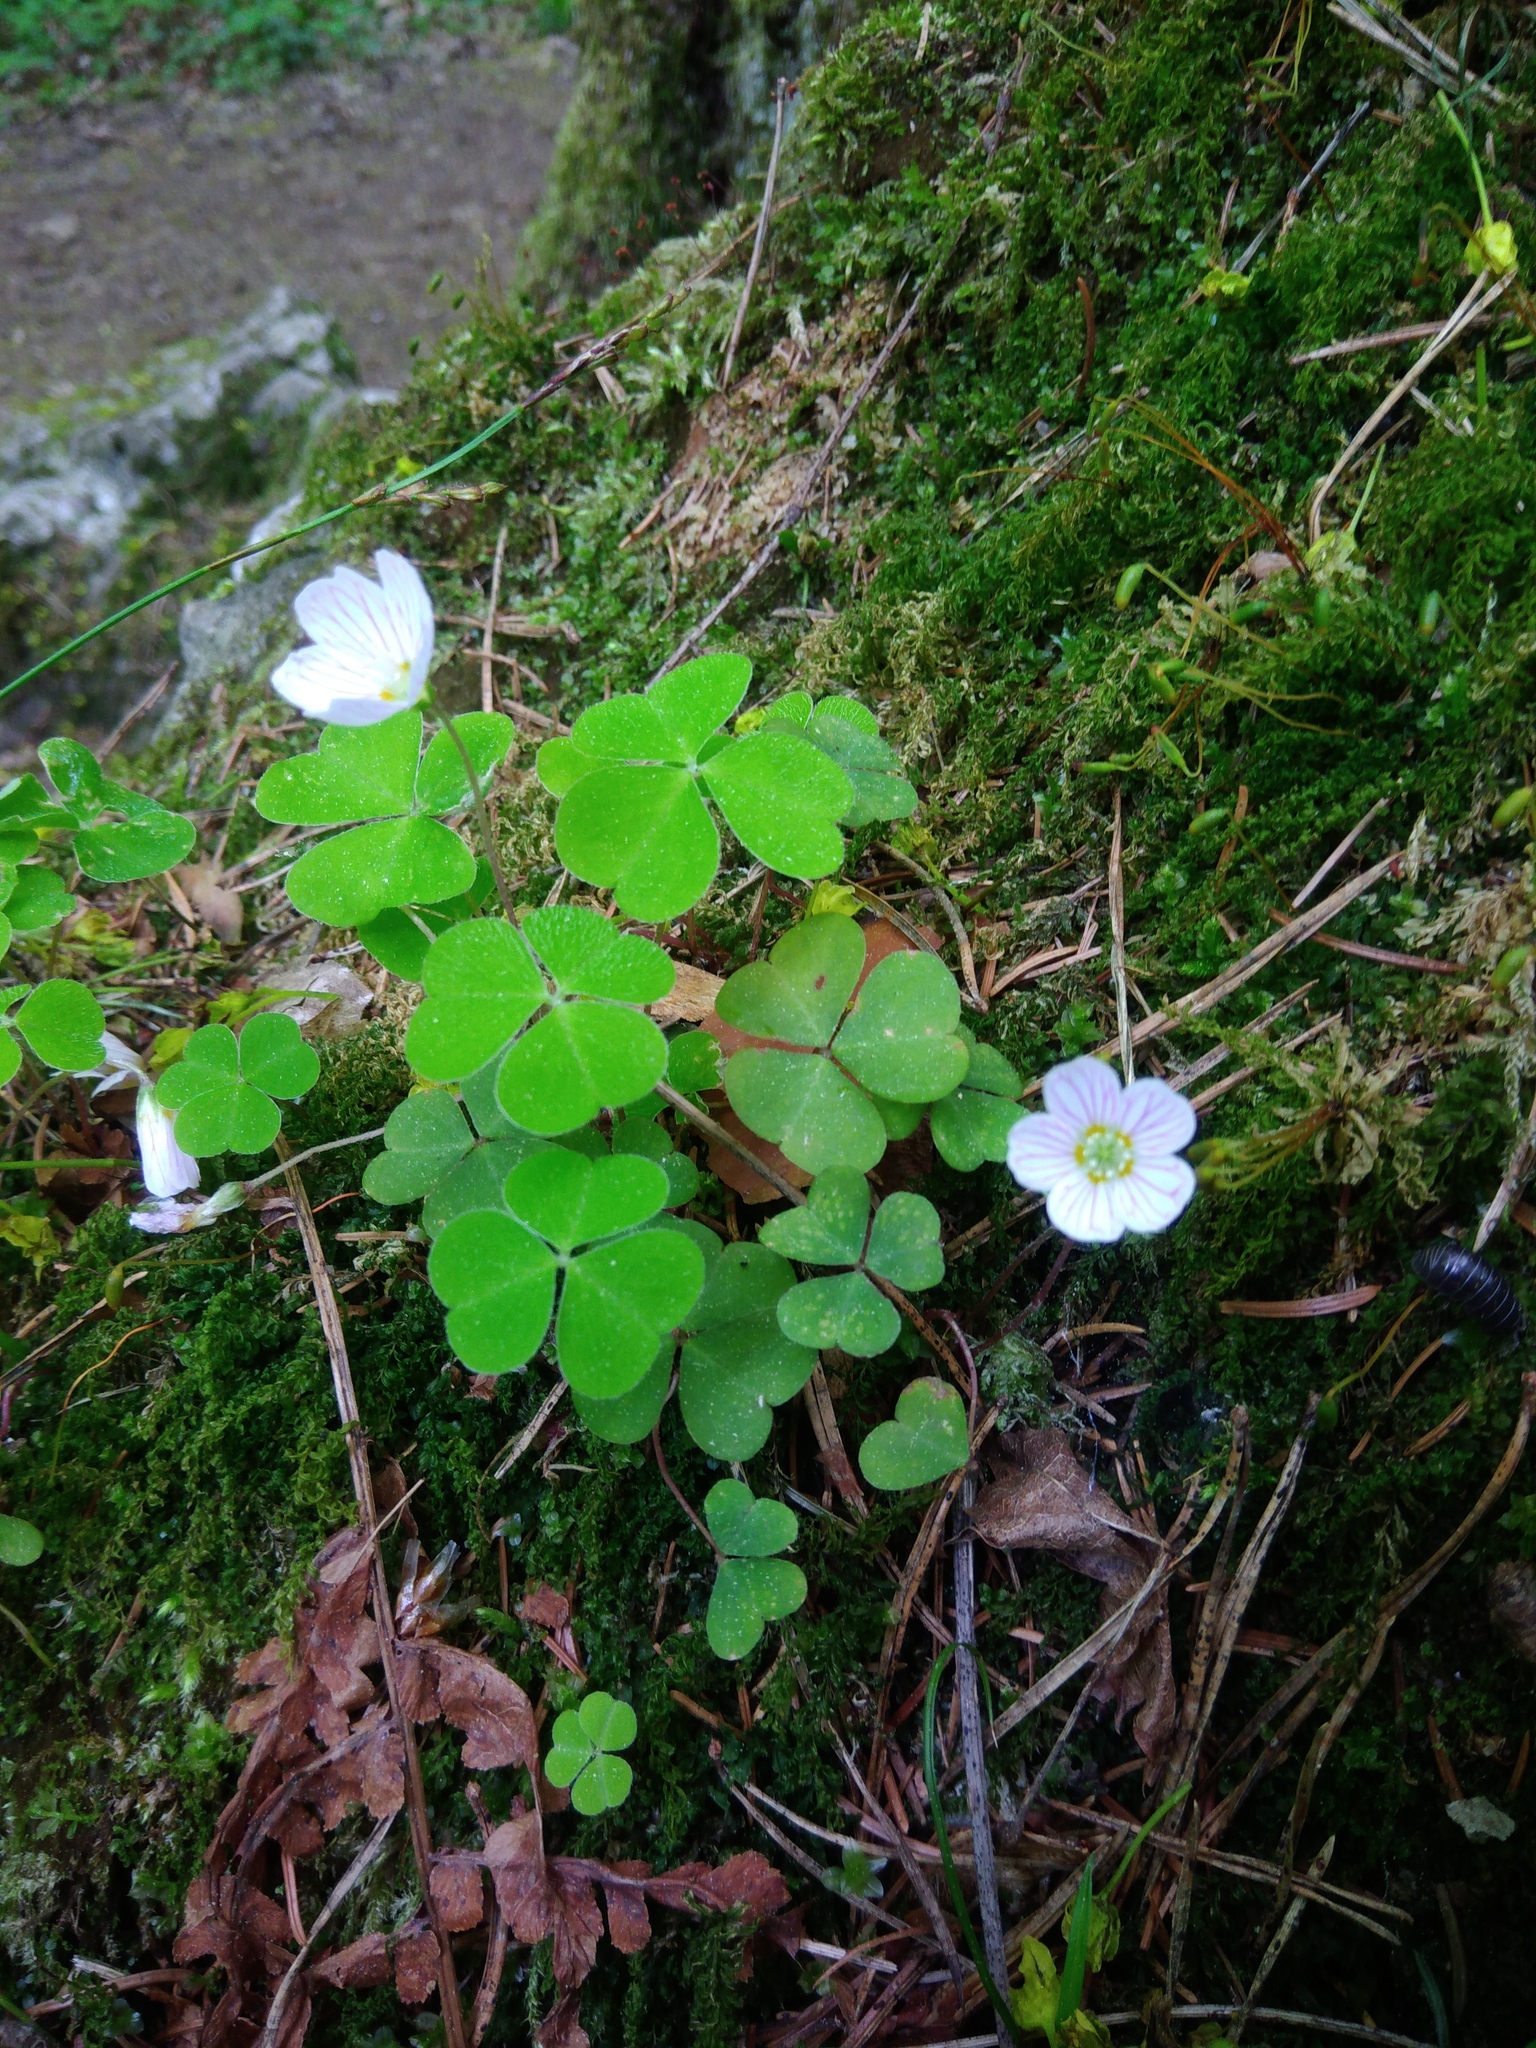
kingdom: Plantae
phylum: Tracheophyta
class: Magnoliopsida
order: Oxalidales
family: Oxalidaceae
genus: Oxalis
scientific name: Oxalis acetosella
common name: Wood-sorrel
